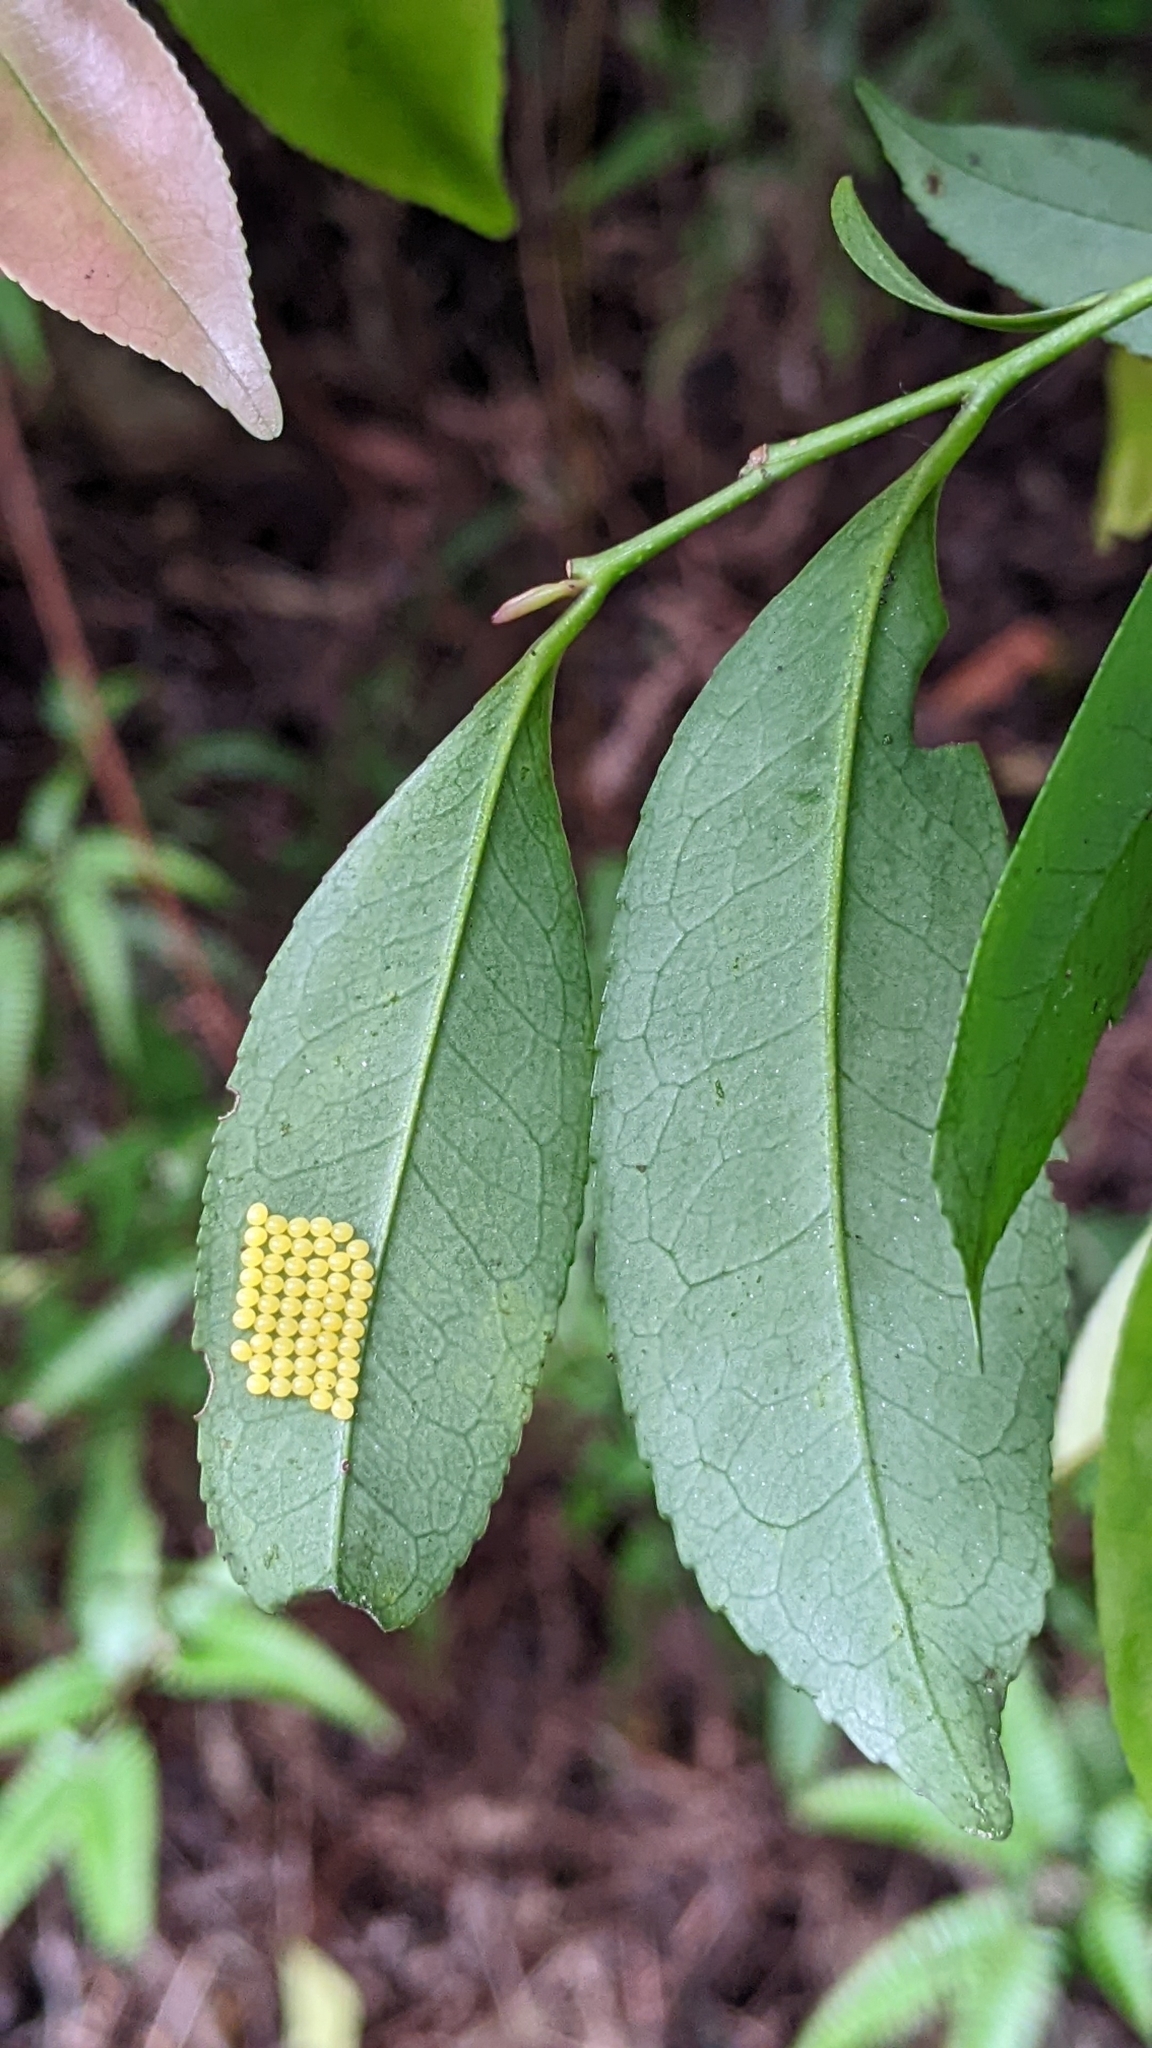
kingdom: Plantae
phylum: Tracheophyta
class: Magnoliopsida
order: Ericales
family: Pentaphylacaceae
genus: Eurya
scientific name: Eurya nitida
